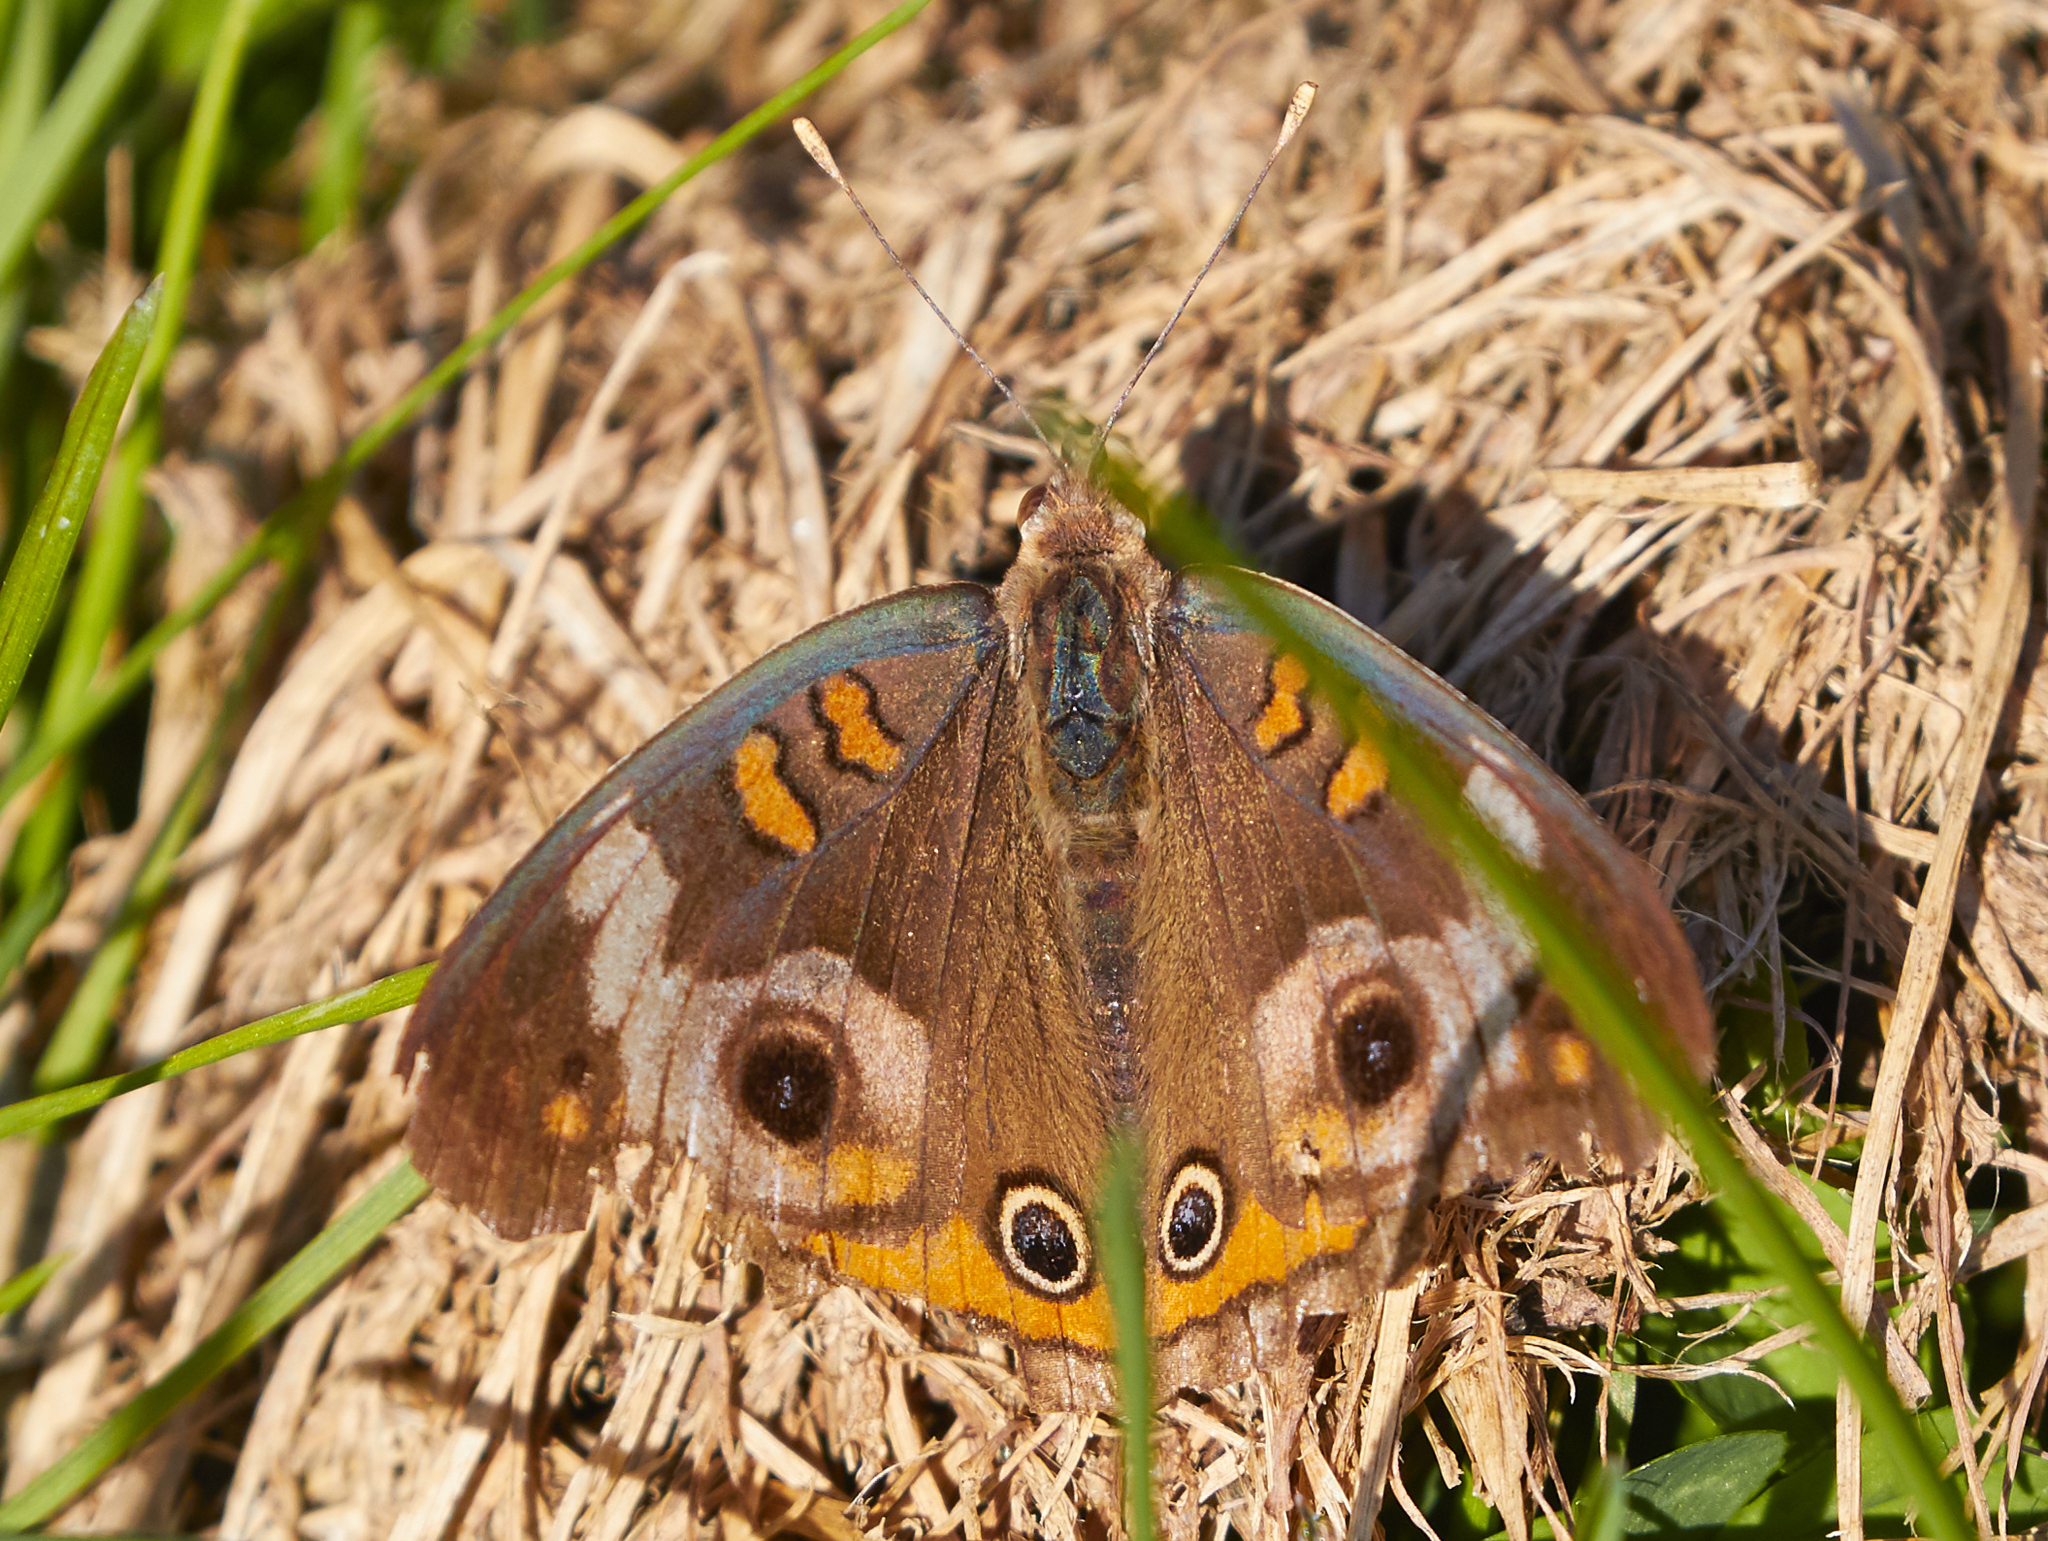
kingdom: Animalia
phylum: Arthropoda
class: Insecta
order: Lepidoptera
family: Nymphalidae
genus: Junonia
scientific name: Junonia coenia
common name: Common buckeye
